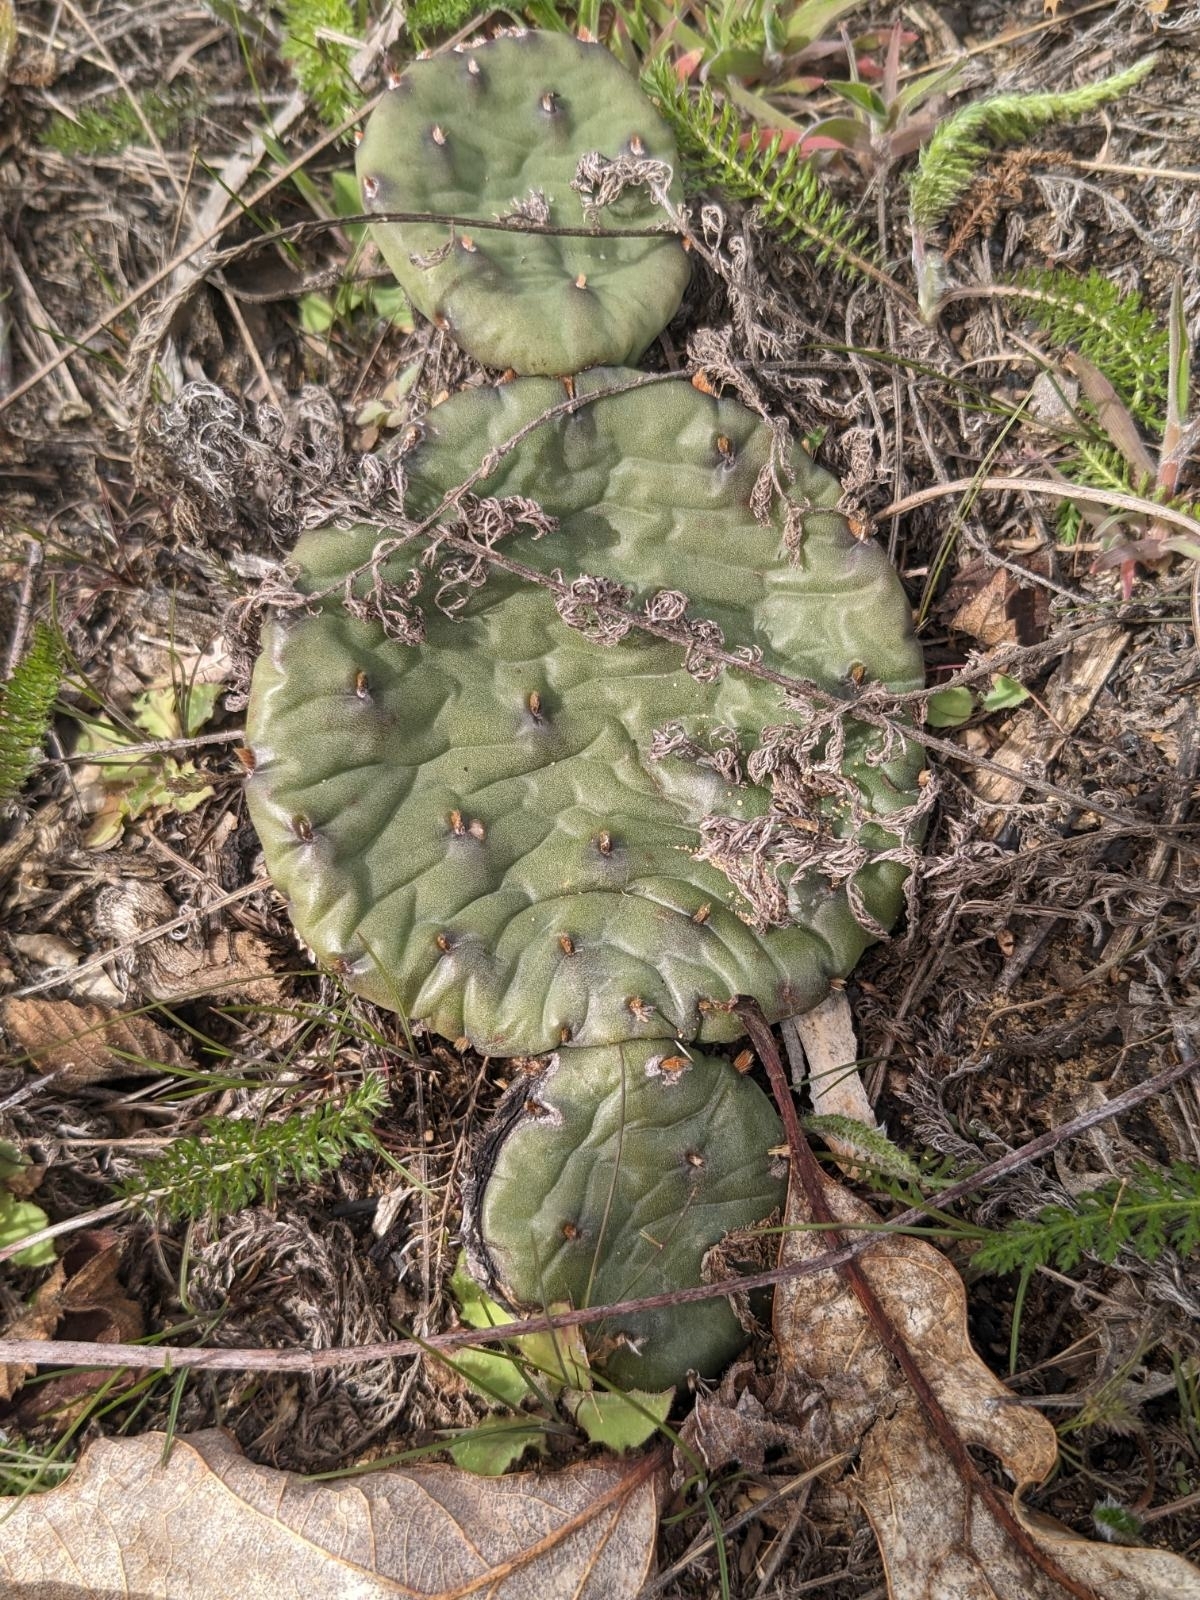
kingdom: Plantae
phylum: Tracheophyta
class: Magnoliopsida
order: Caryophyllales
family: Cactaceae
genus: Opuntia
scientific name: Opuntia humifusa
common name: Eastern prickly-pear
